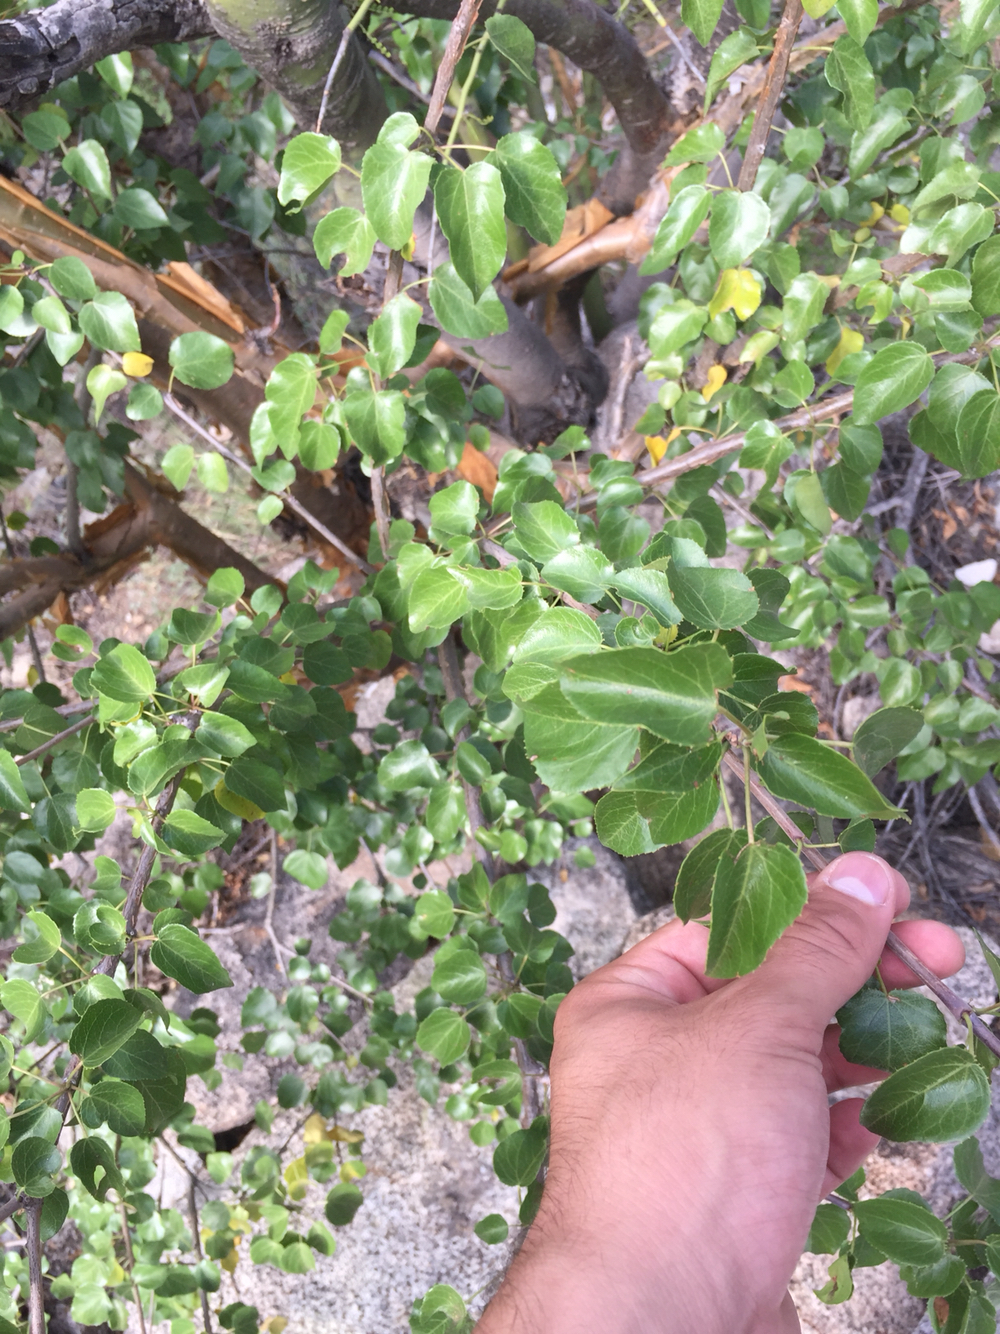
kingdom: Plantae
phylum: Tracheophyta
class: Magnoliopsida
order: Malpighiales
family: Euphorbiaceae
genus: Jatropha
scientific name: Jatropha cordata
